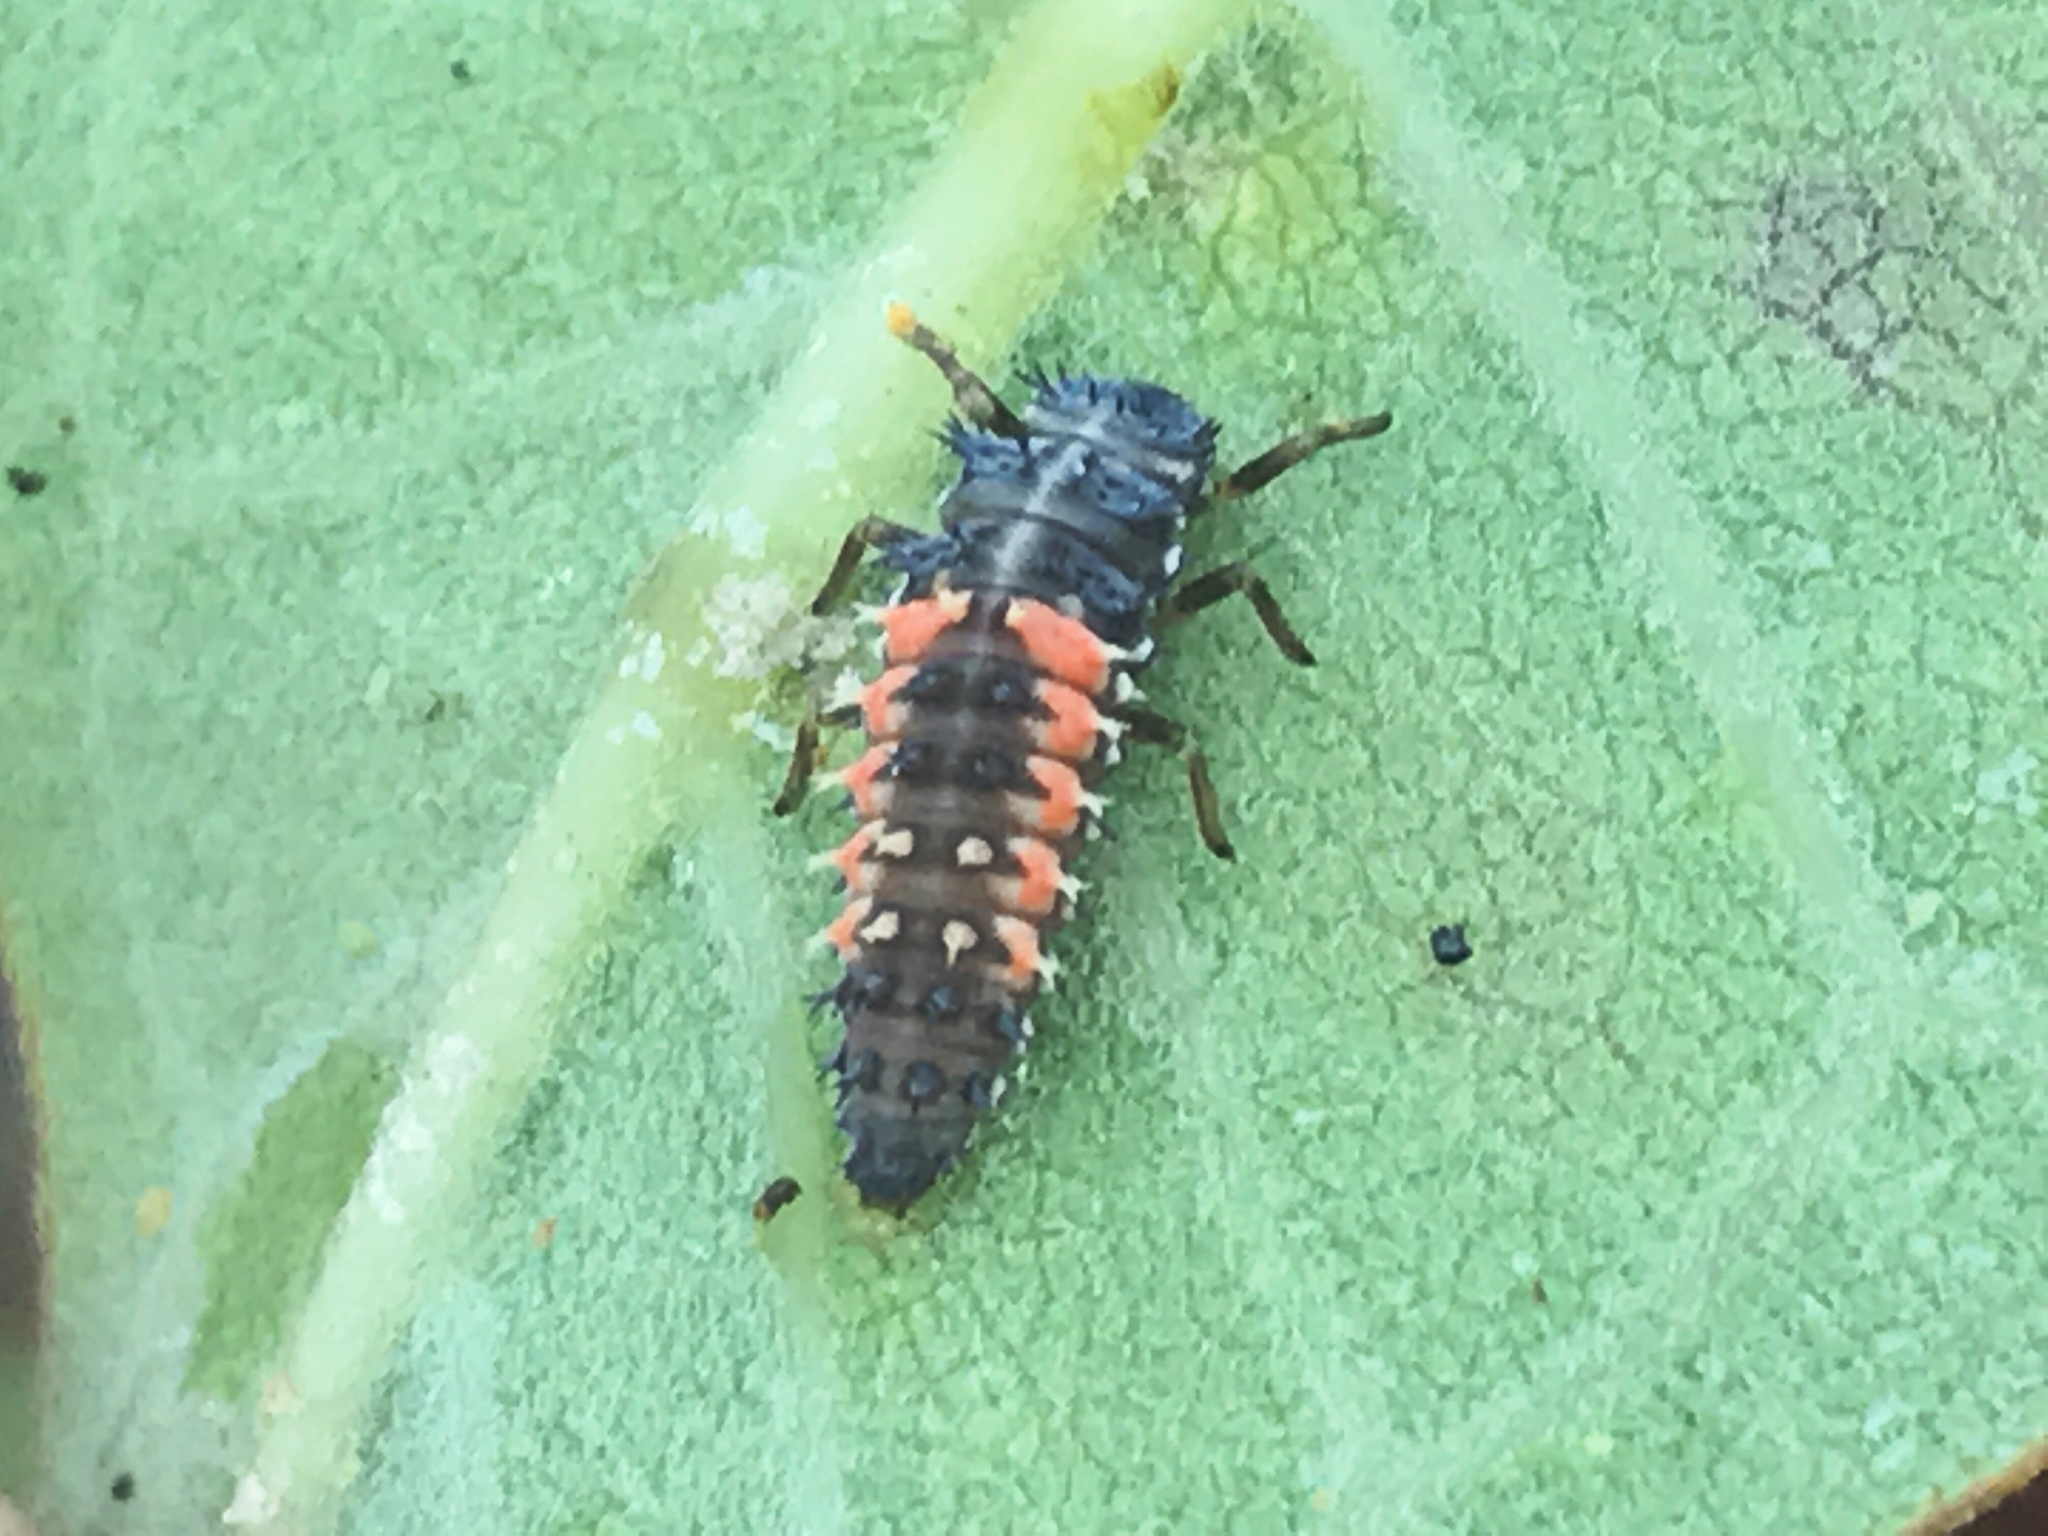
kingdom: Animalia
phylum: Arthropoda
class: Insecta
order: Coleoptera
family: Coccinellidae
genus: Harmonia
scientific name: Harmonia axyridis
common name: Harlequin ladybird
